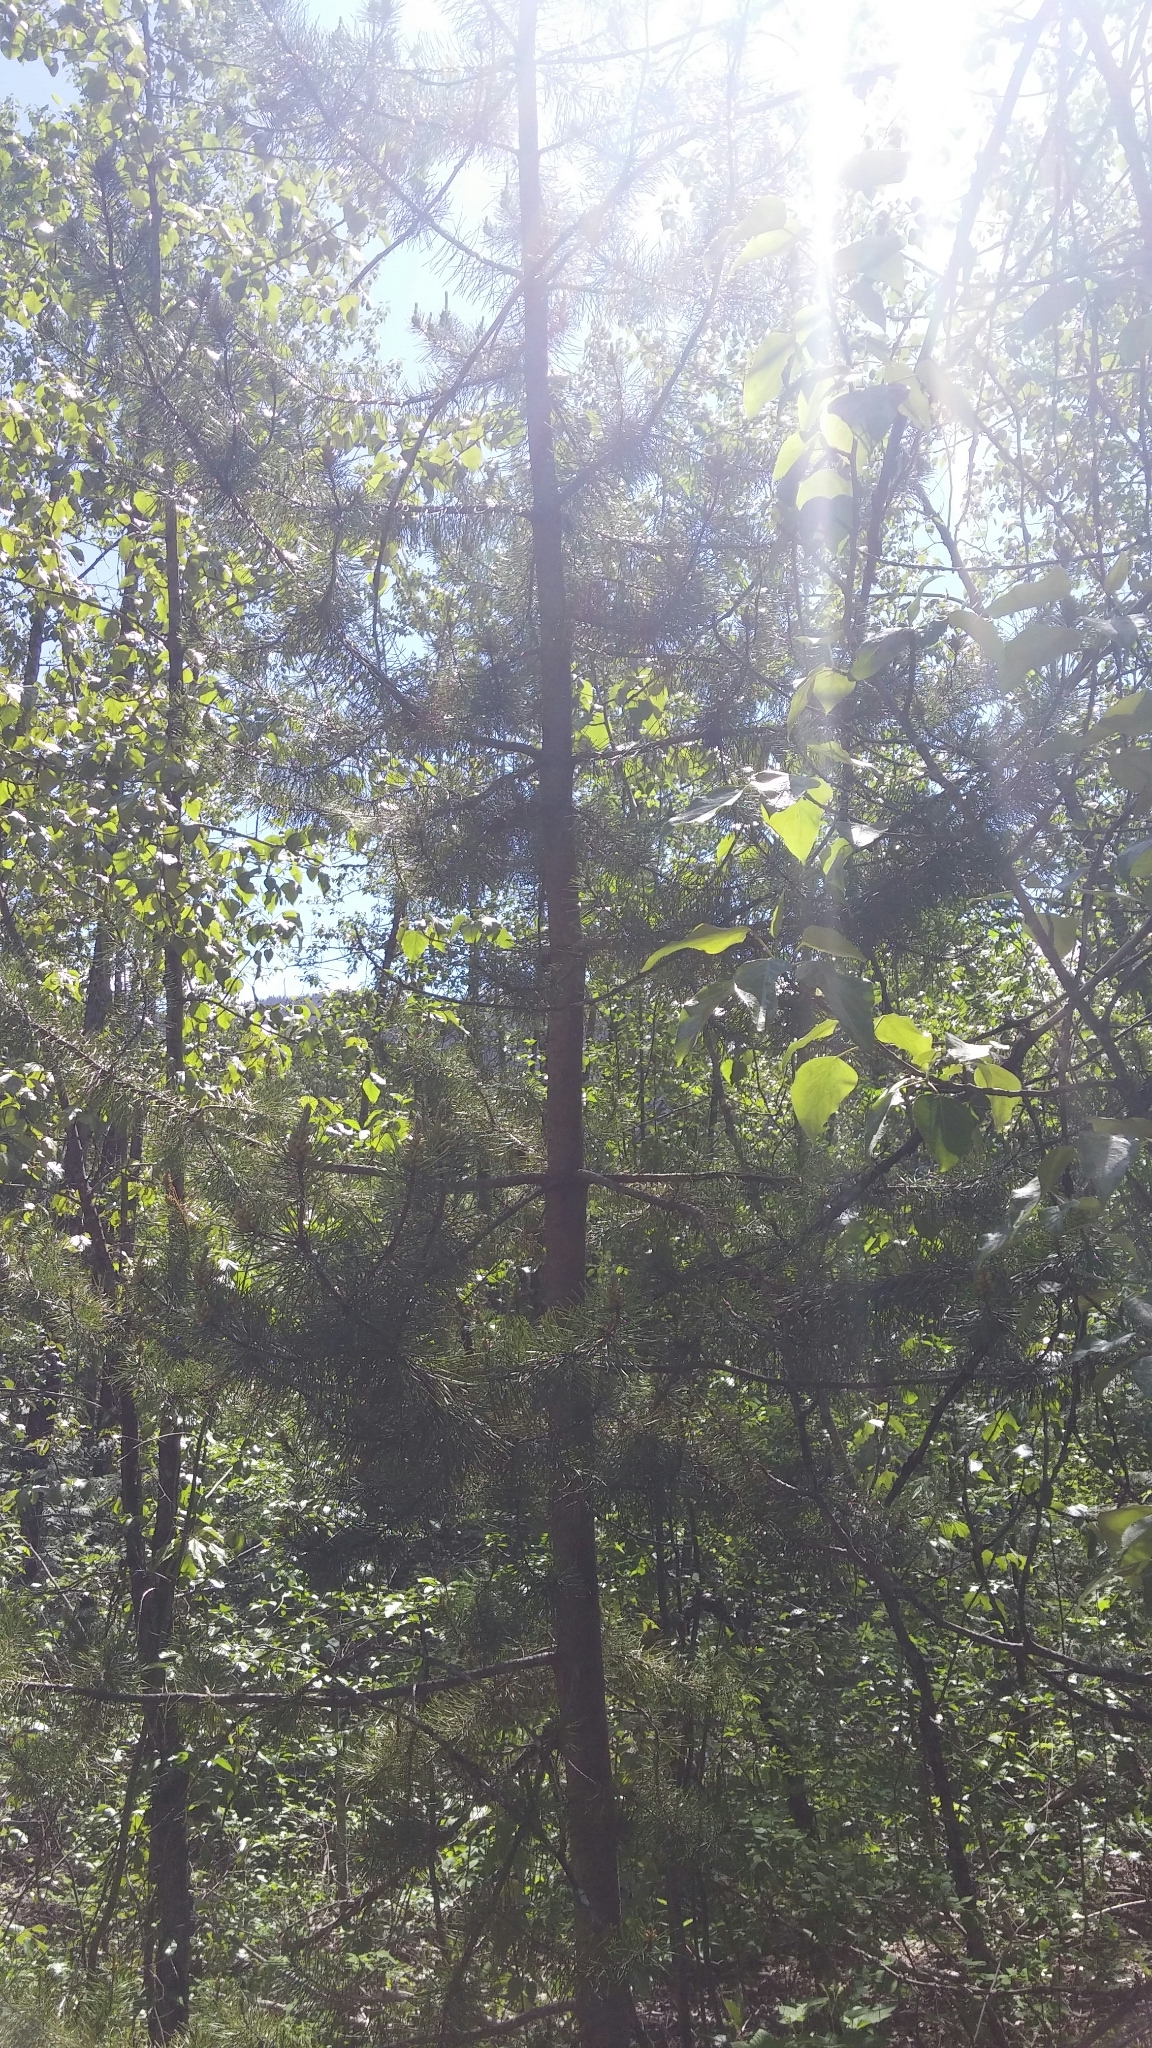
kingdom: Plantae
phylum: Tracheophyta
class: Pinopsida
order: Pinales
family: Pinaceae
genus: Pinus
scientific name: Pinus contorta
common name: Lodgepole pine
